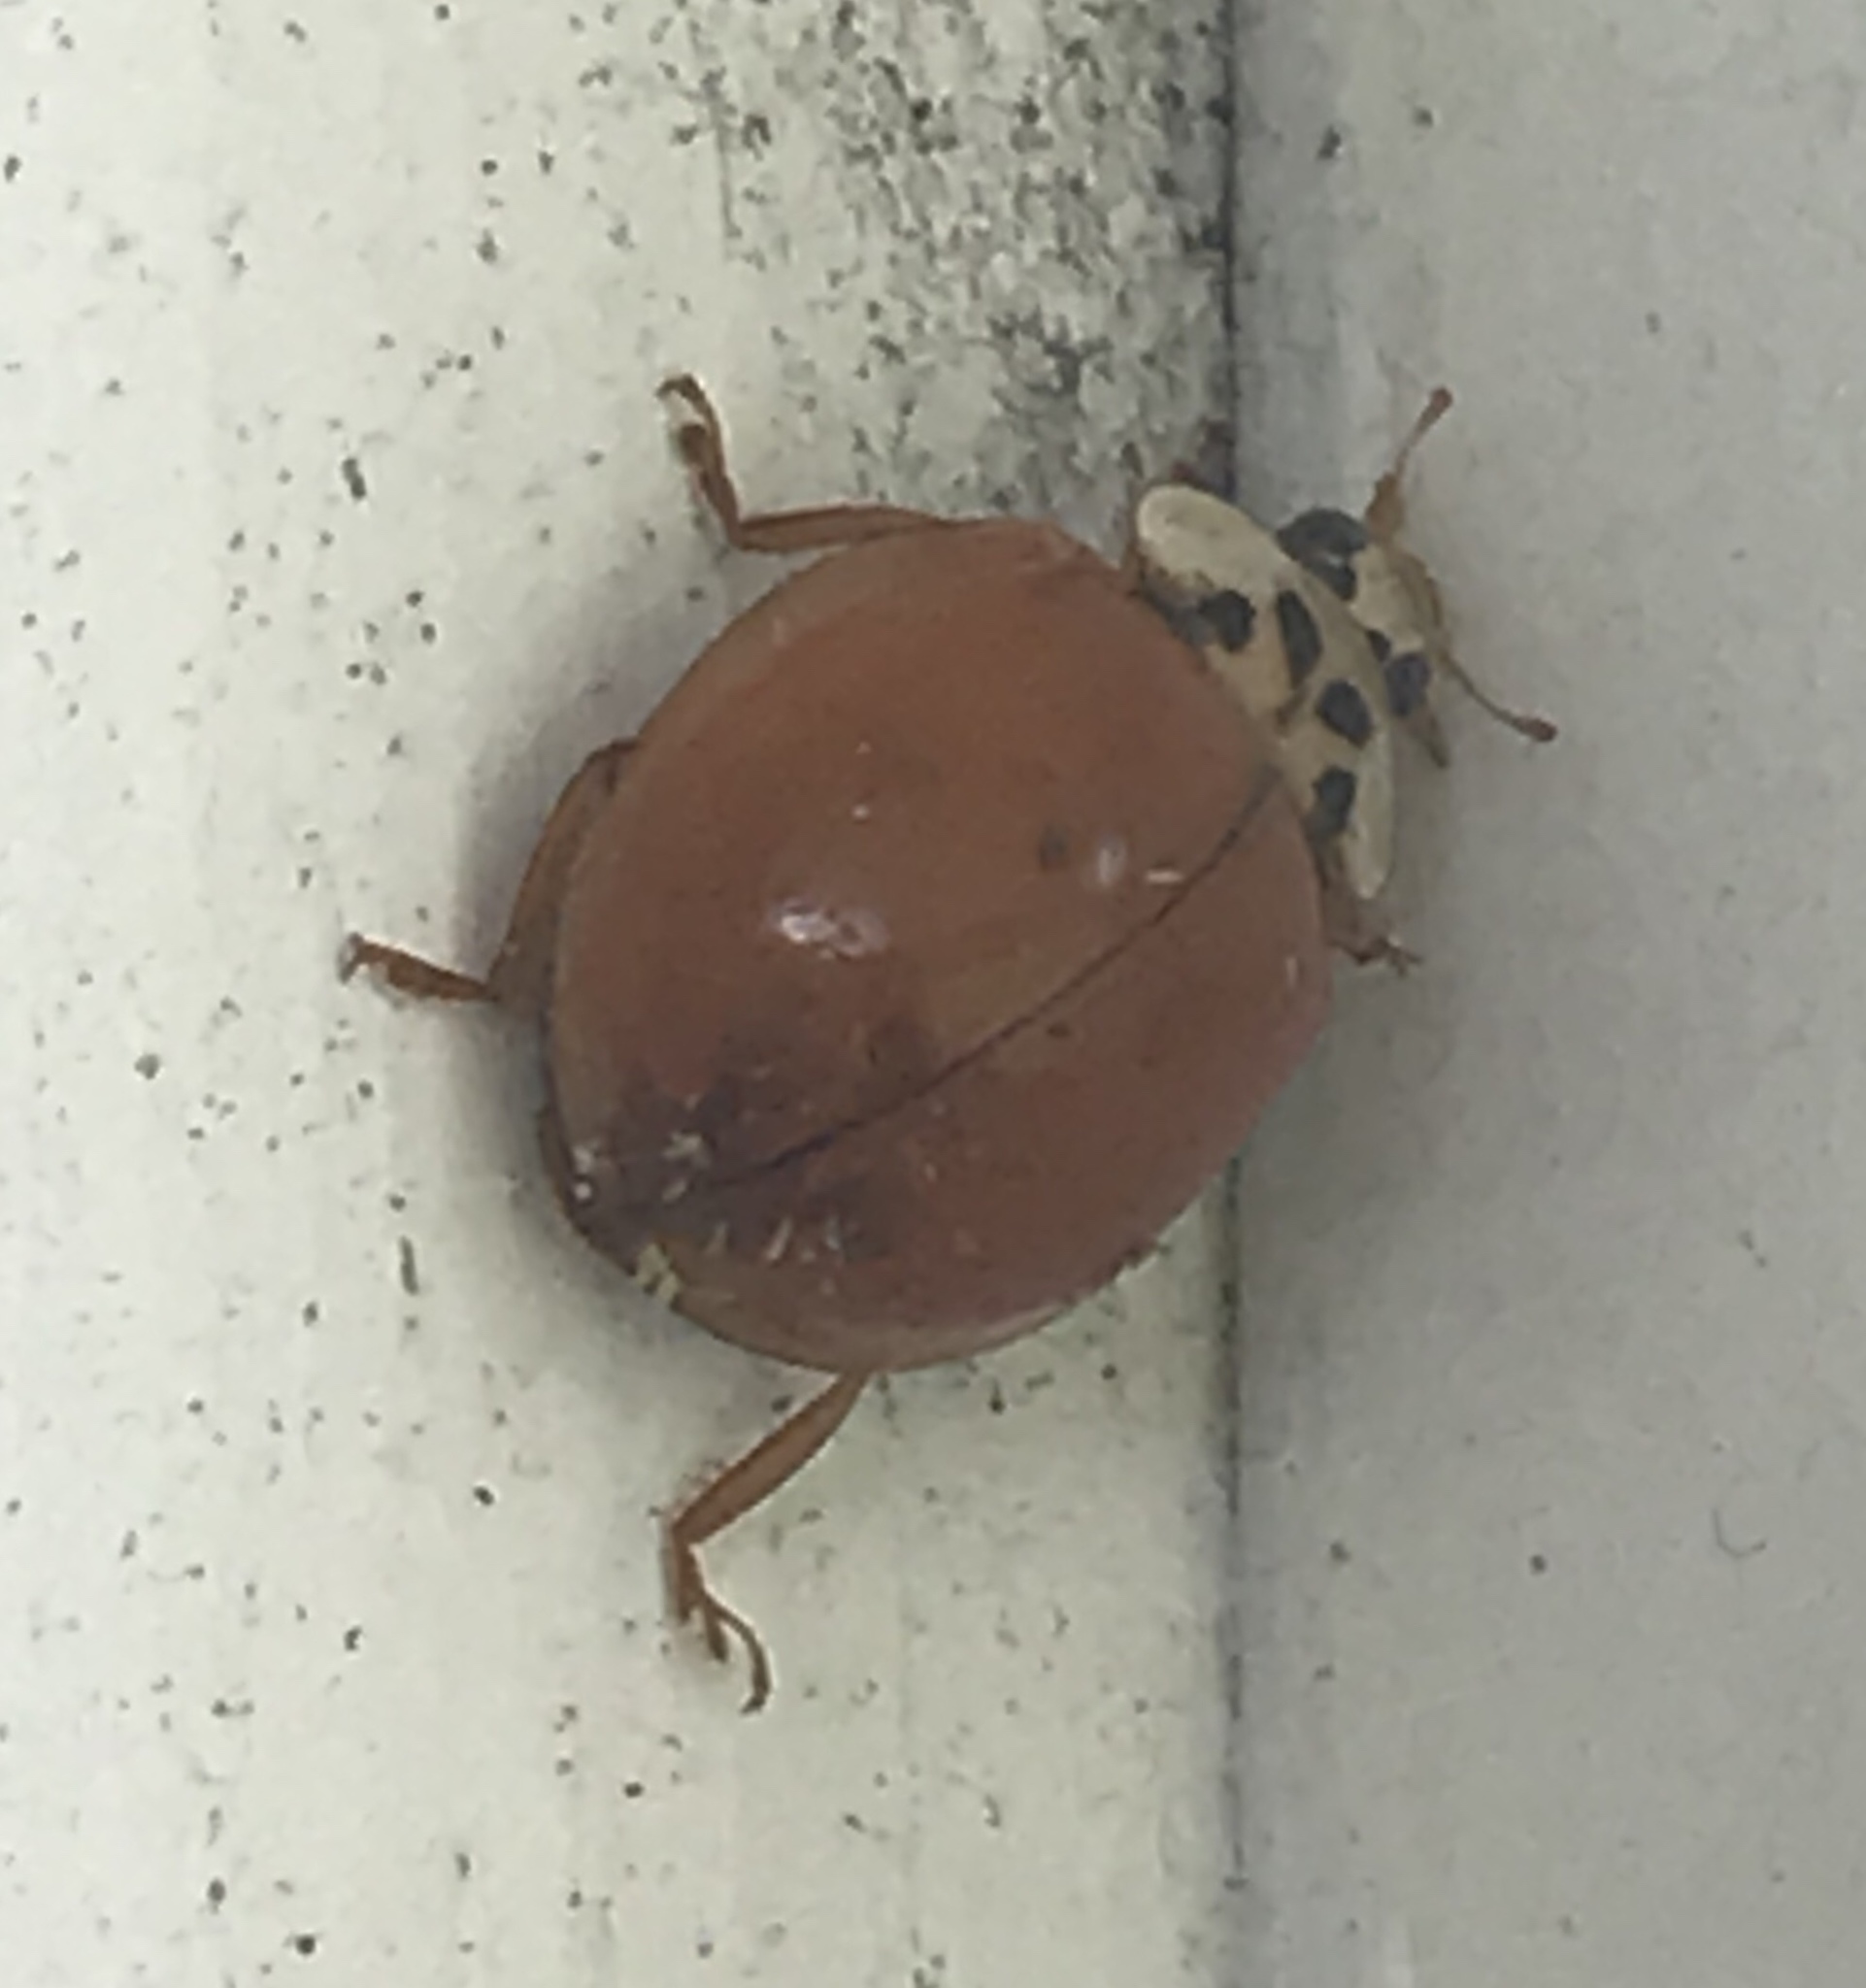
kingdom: Animalia
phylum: Arthropoda
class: Insecta
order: Coleoptera
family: Coccinellidae
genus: Harmonia
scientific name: Harmonia axyridis
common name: Harlequin ladybird
